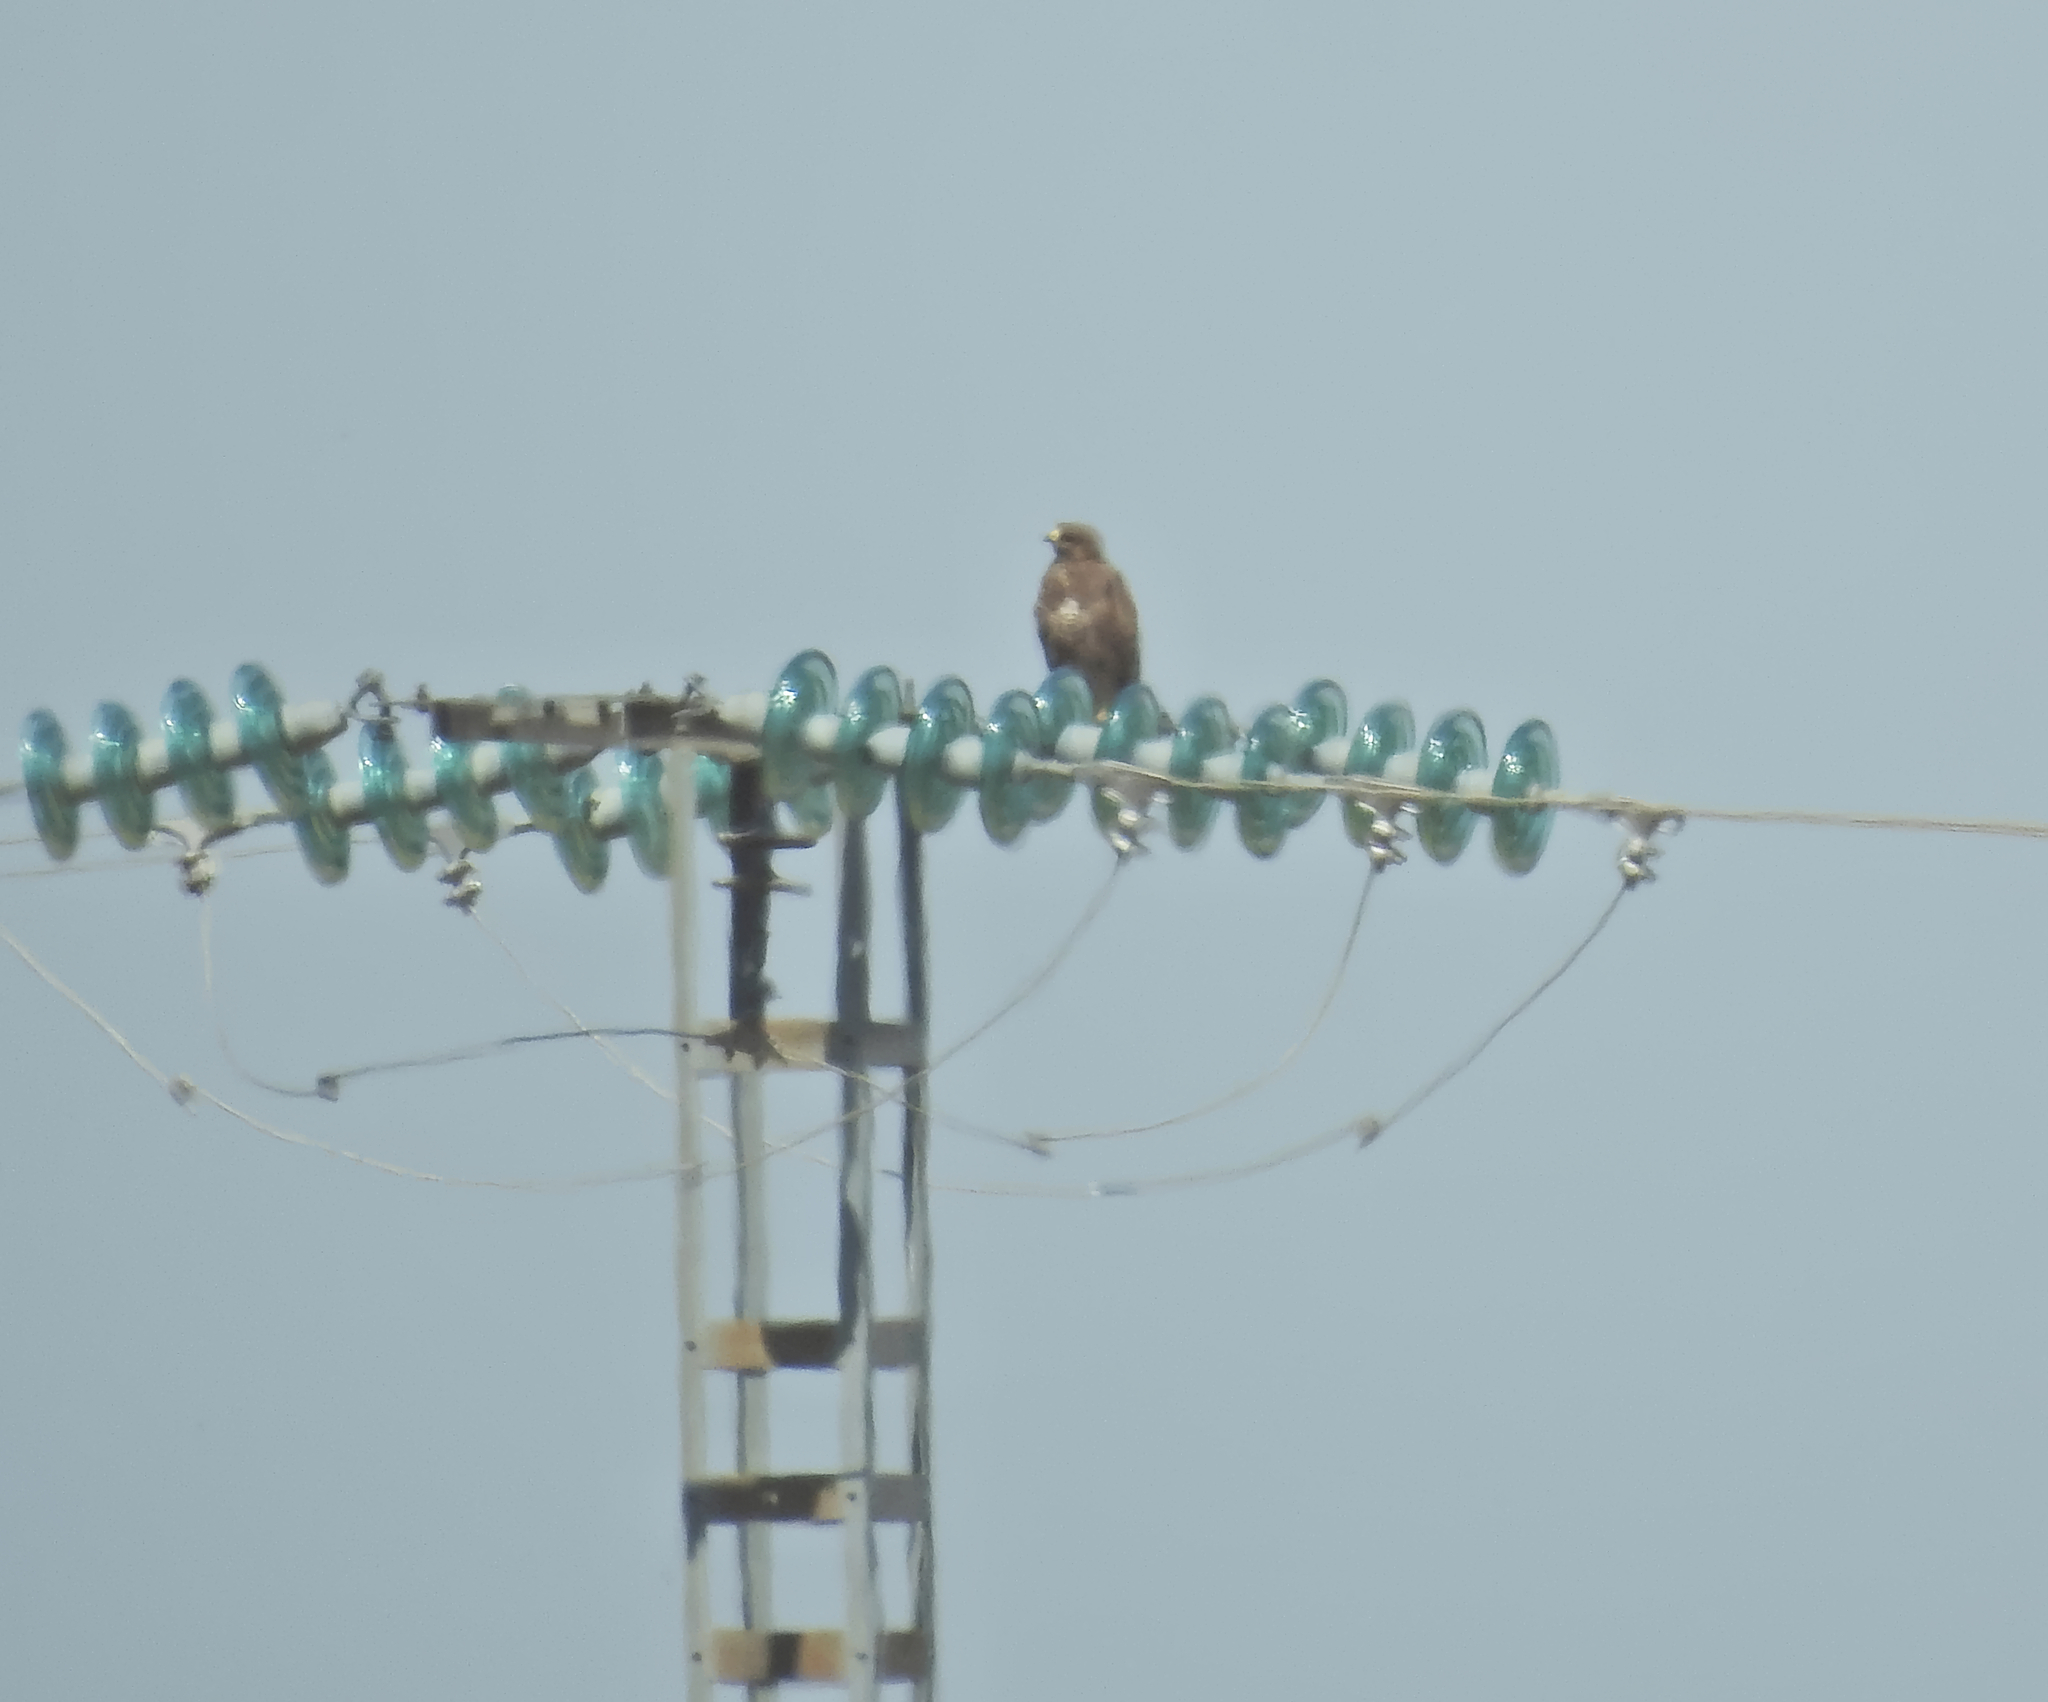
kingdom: Animalia
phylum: Chordata
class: Aves
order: Accipitriformes
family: Accipitridae
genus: Buteo
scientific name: Buteo buteo
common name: Common buzzard
